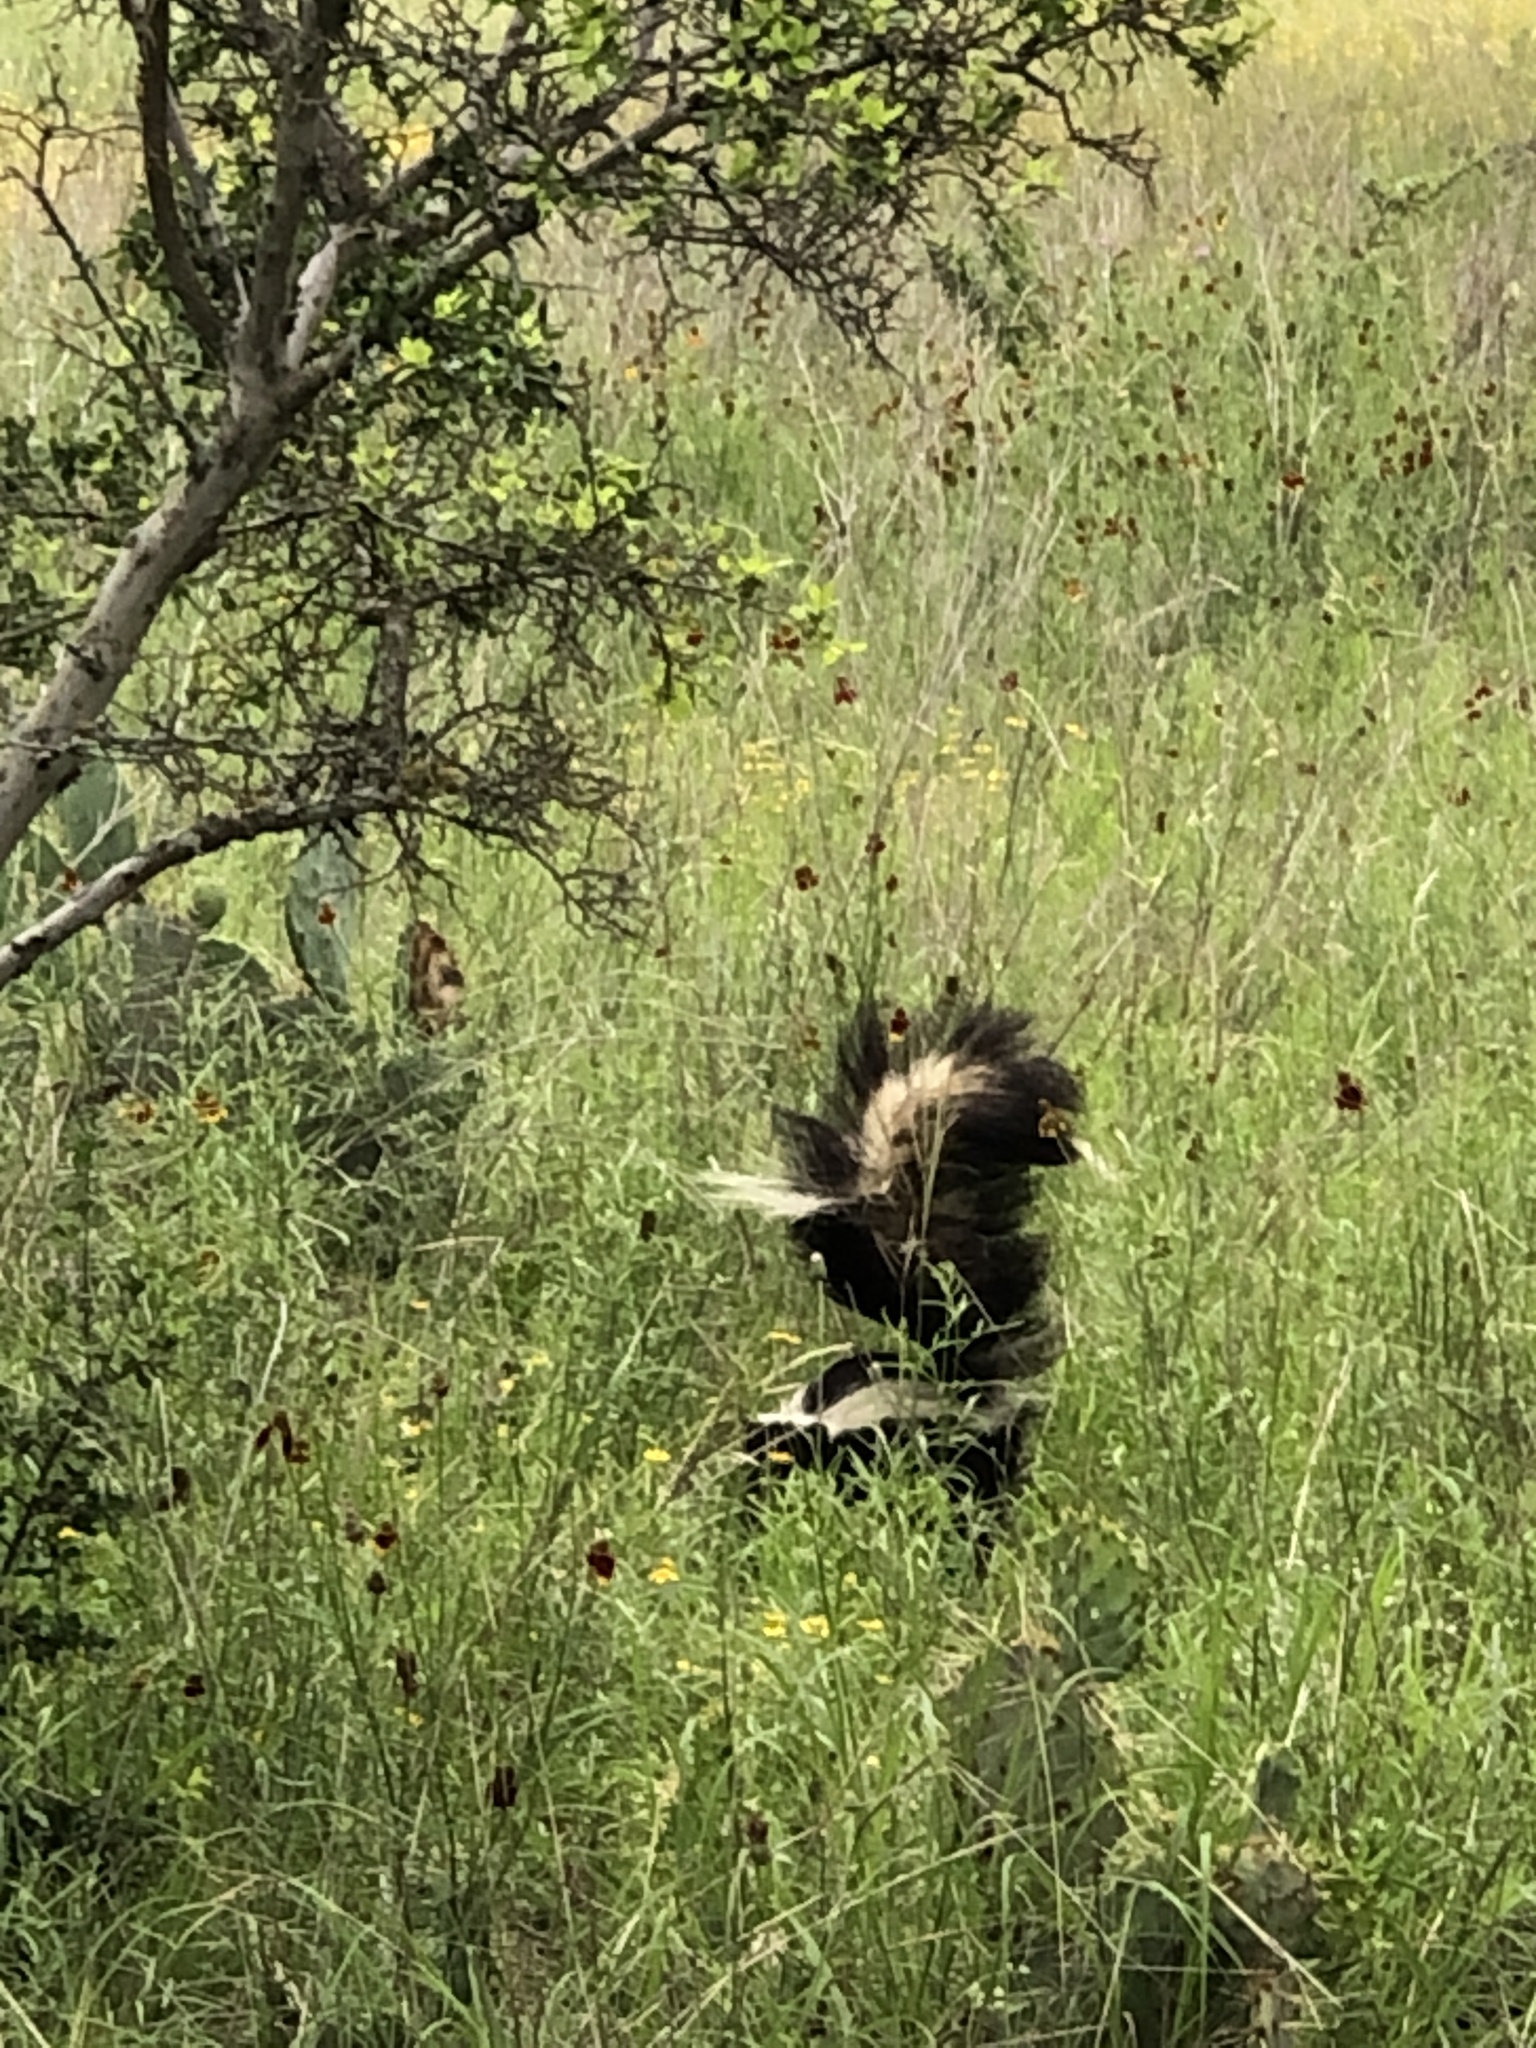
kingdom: Animalia
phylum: Chordata
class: Mammalia
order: Carnivora
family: Mephitidae
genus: Mephitis
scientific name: Mephitis mephitis
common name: Striped skunk
